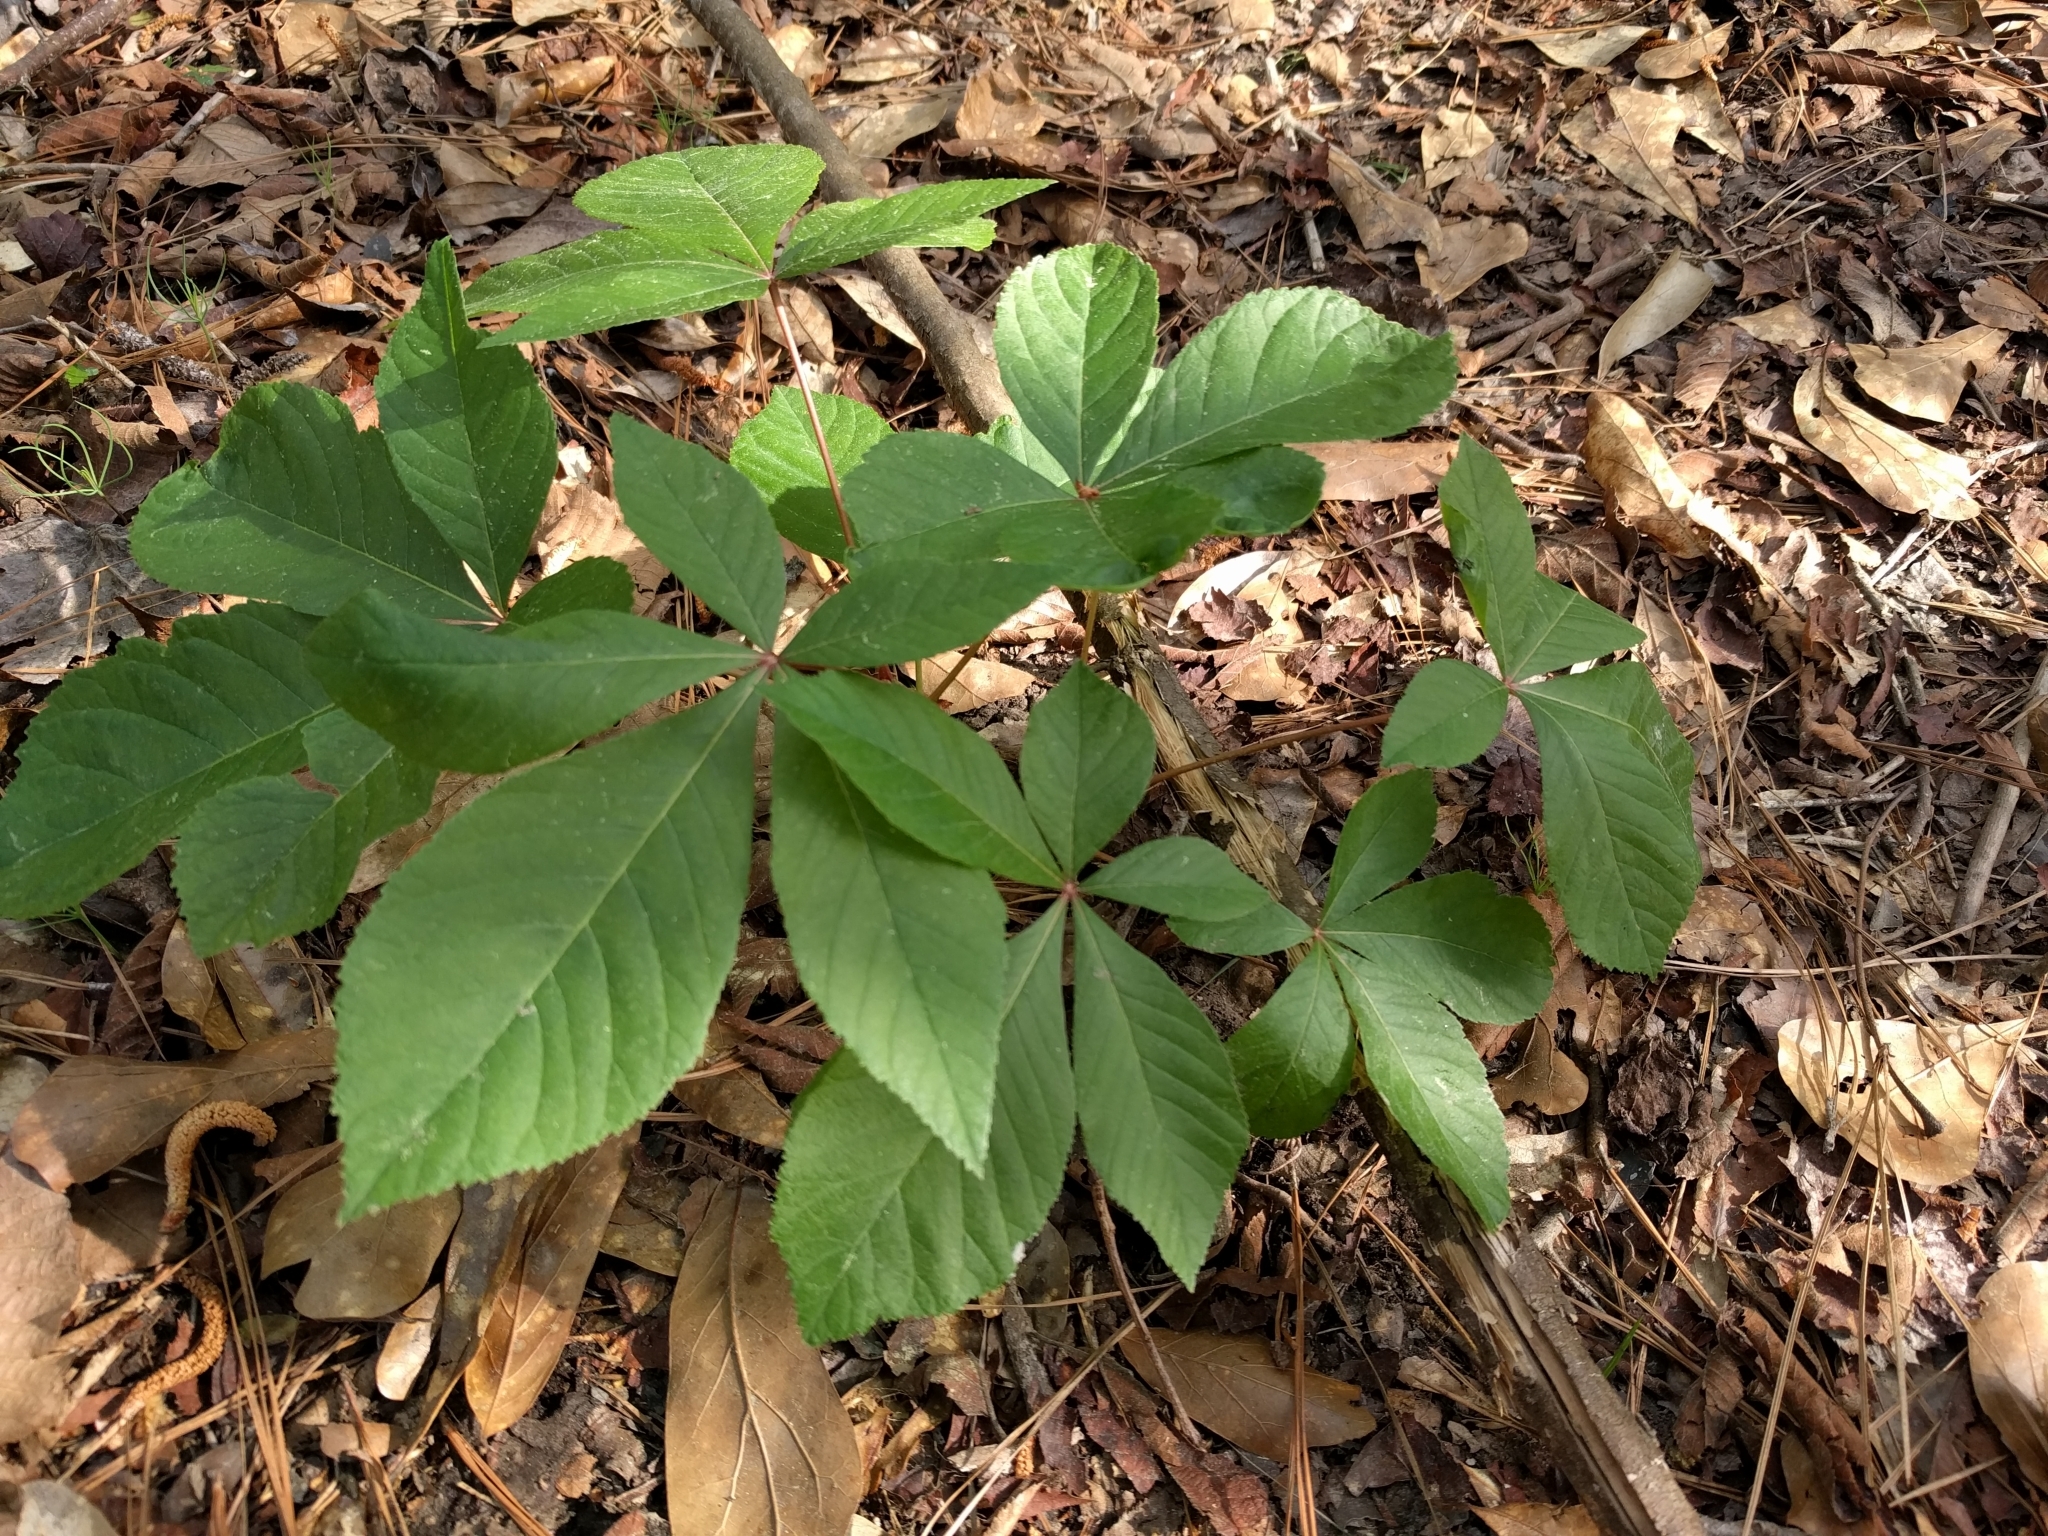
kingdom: Plantae
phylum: Tracheophyta
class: Magnoliopsida
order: Sapindales
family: Sapindaceae
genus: Aesculus
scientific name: Aesculus pavia
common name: Red buckeye
